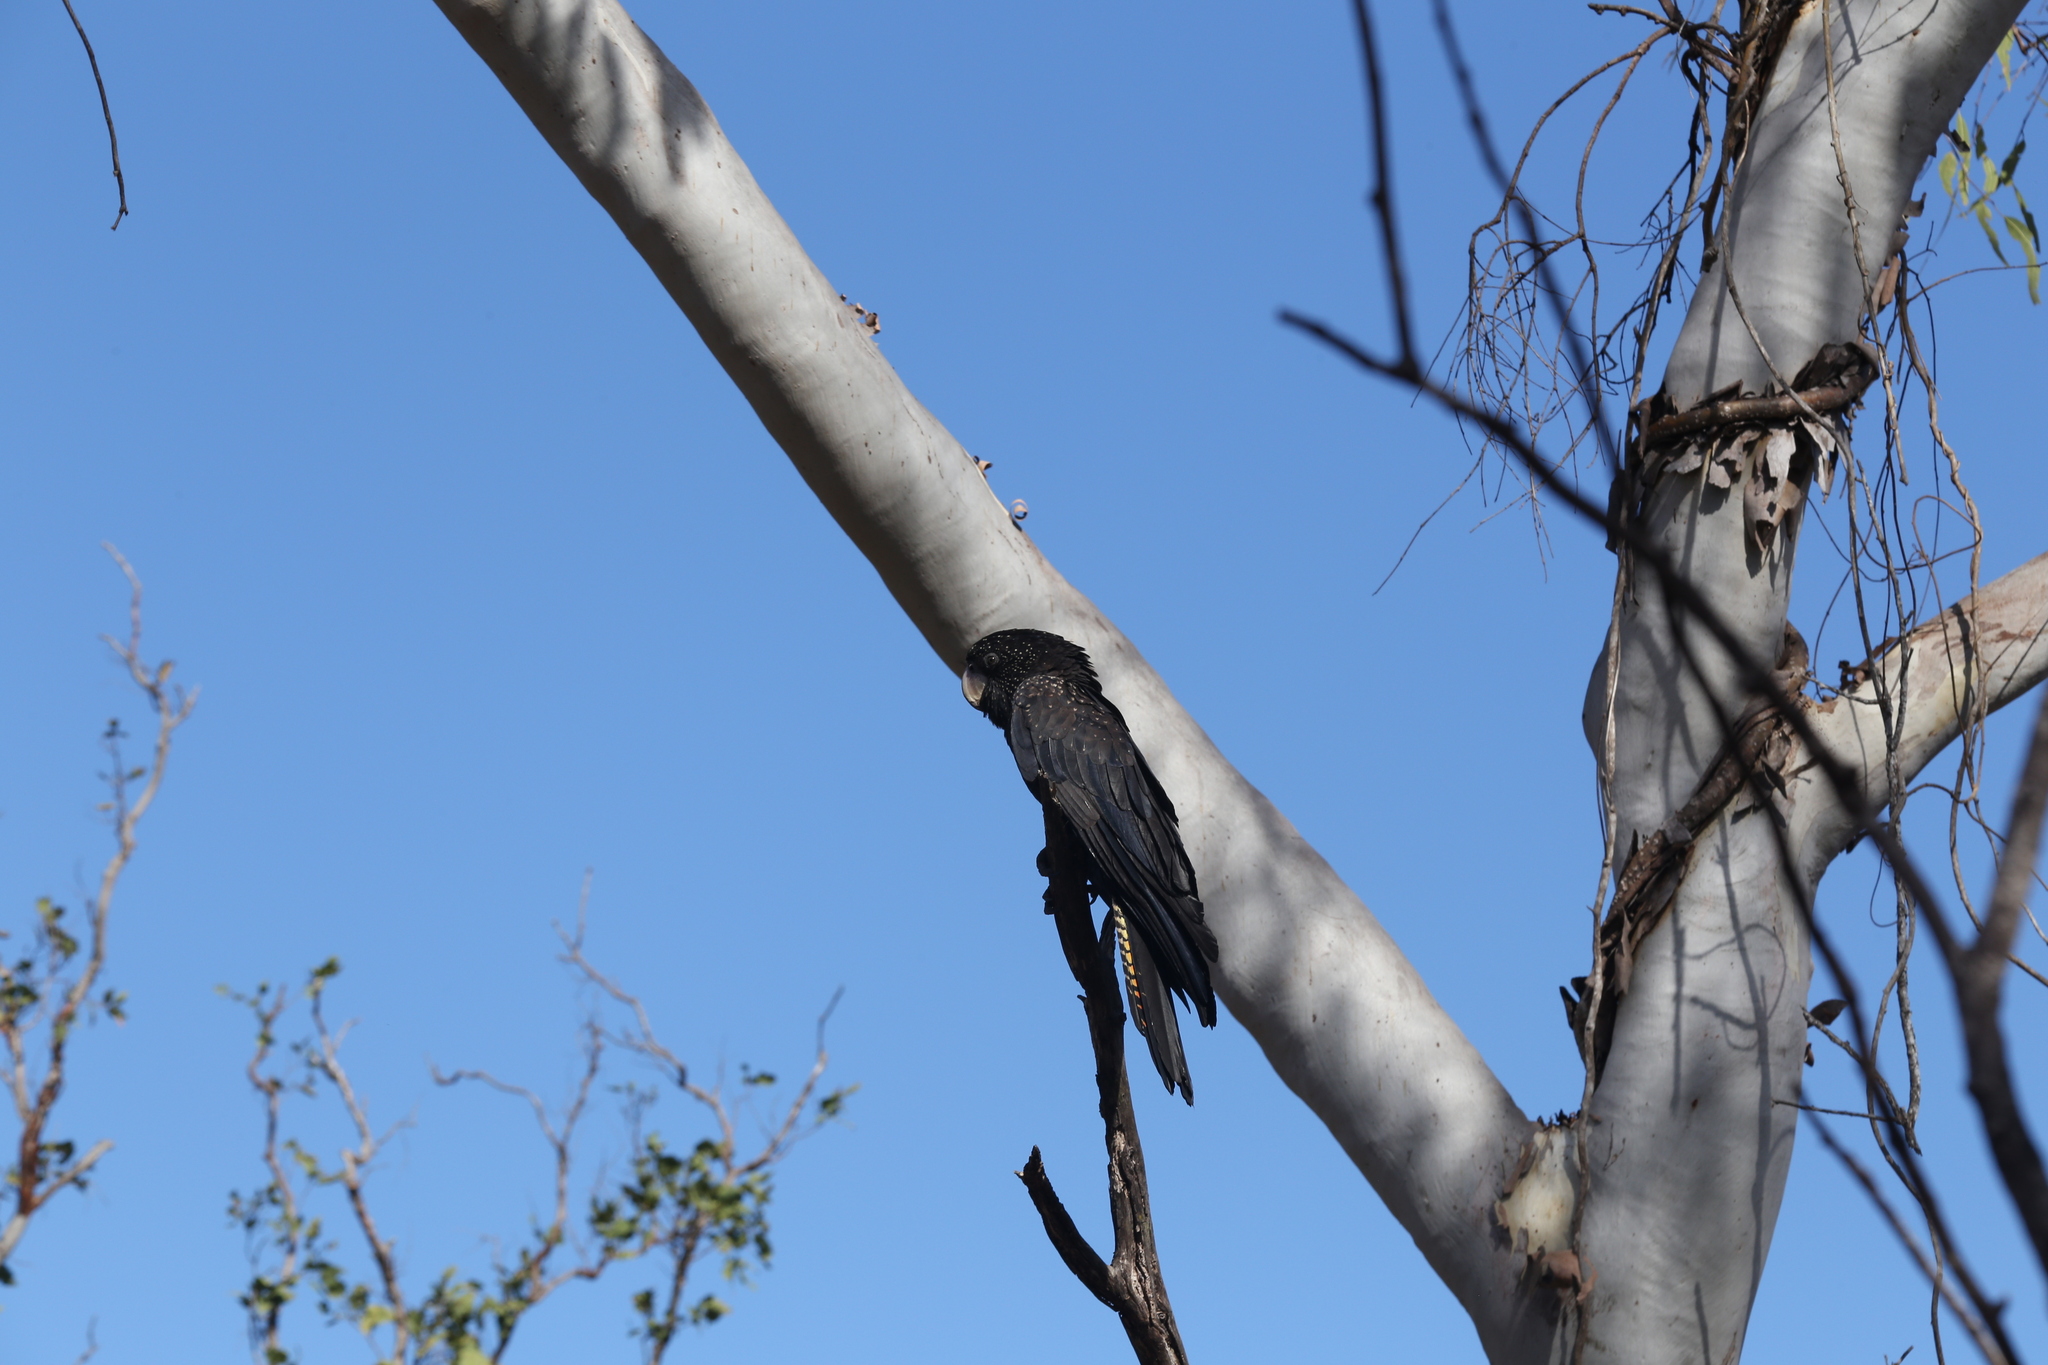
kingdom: Animalia
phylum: Chordata
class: Aves
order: Psittaciformes
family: Psittacidae
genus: Calyptorhynchus
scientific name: Calyptorhynchus banksii
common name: Red-tailed black cockatoo
